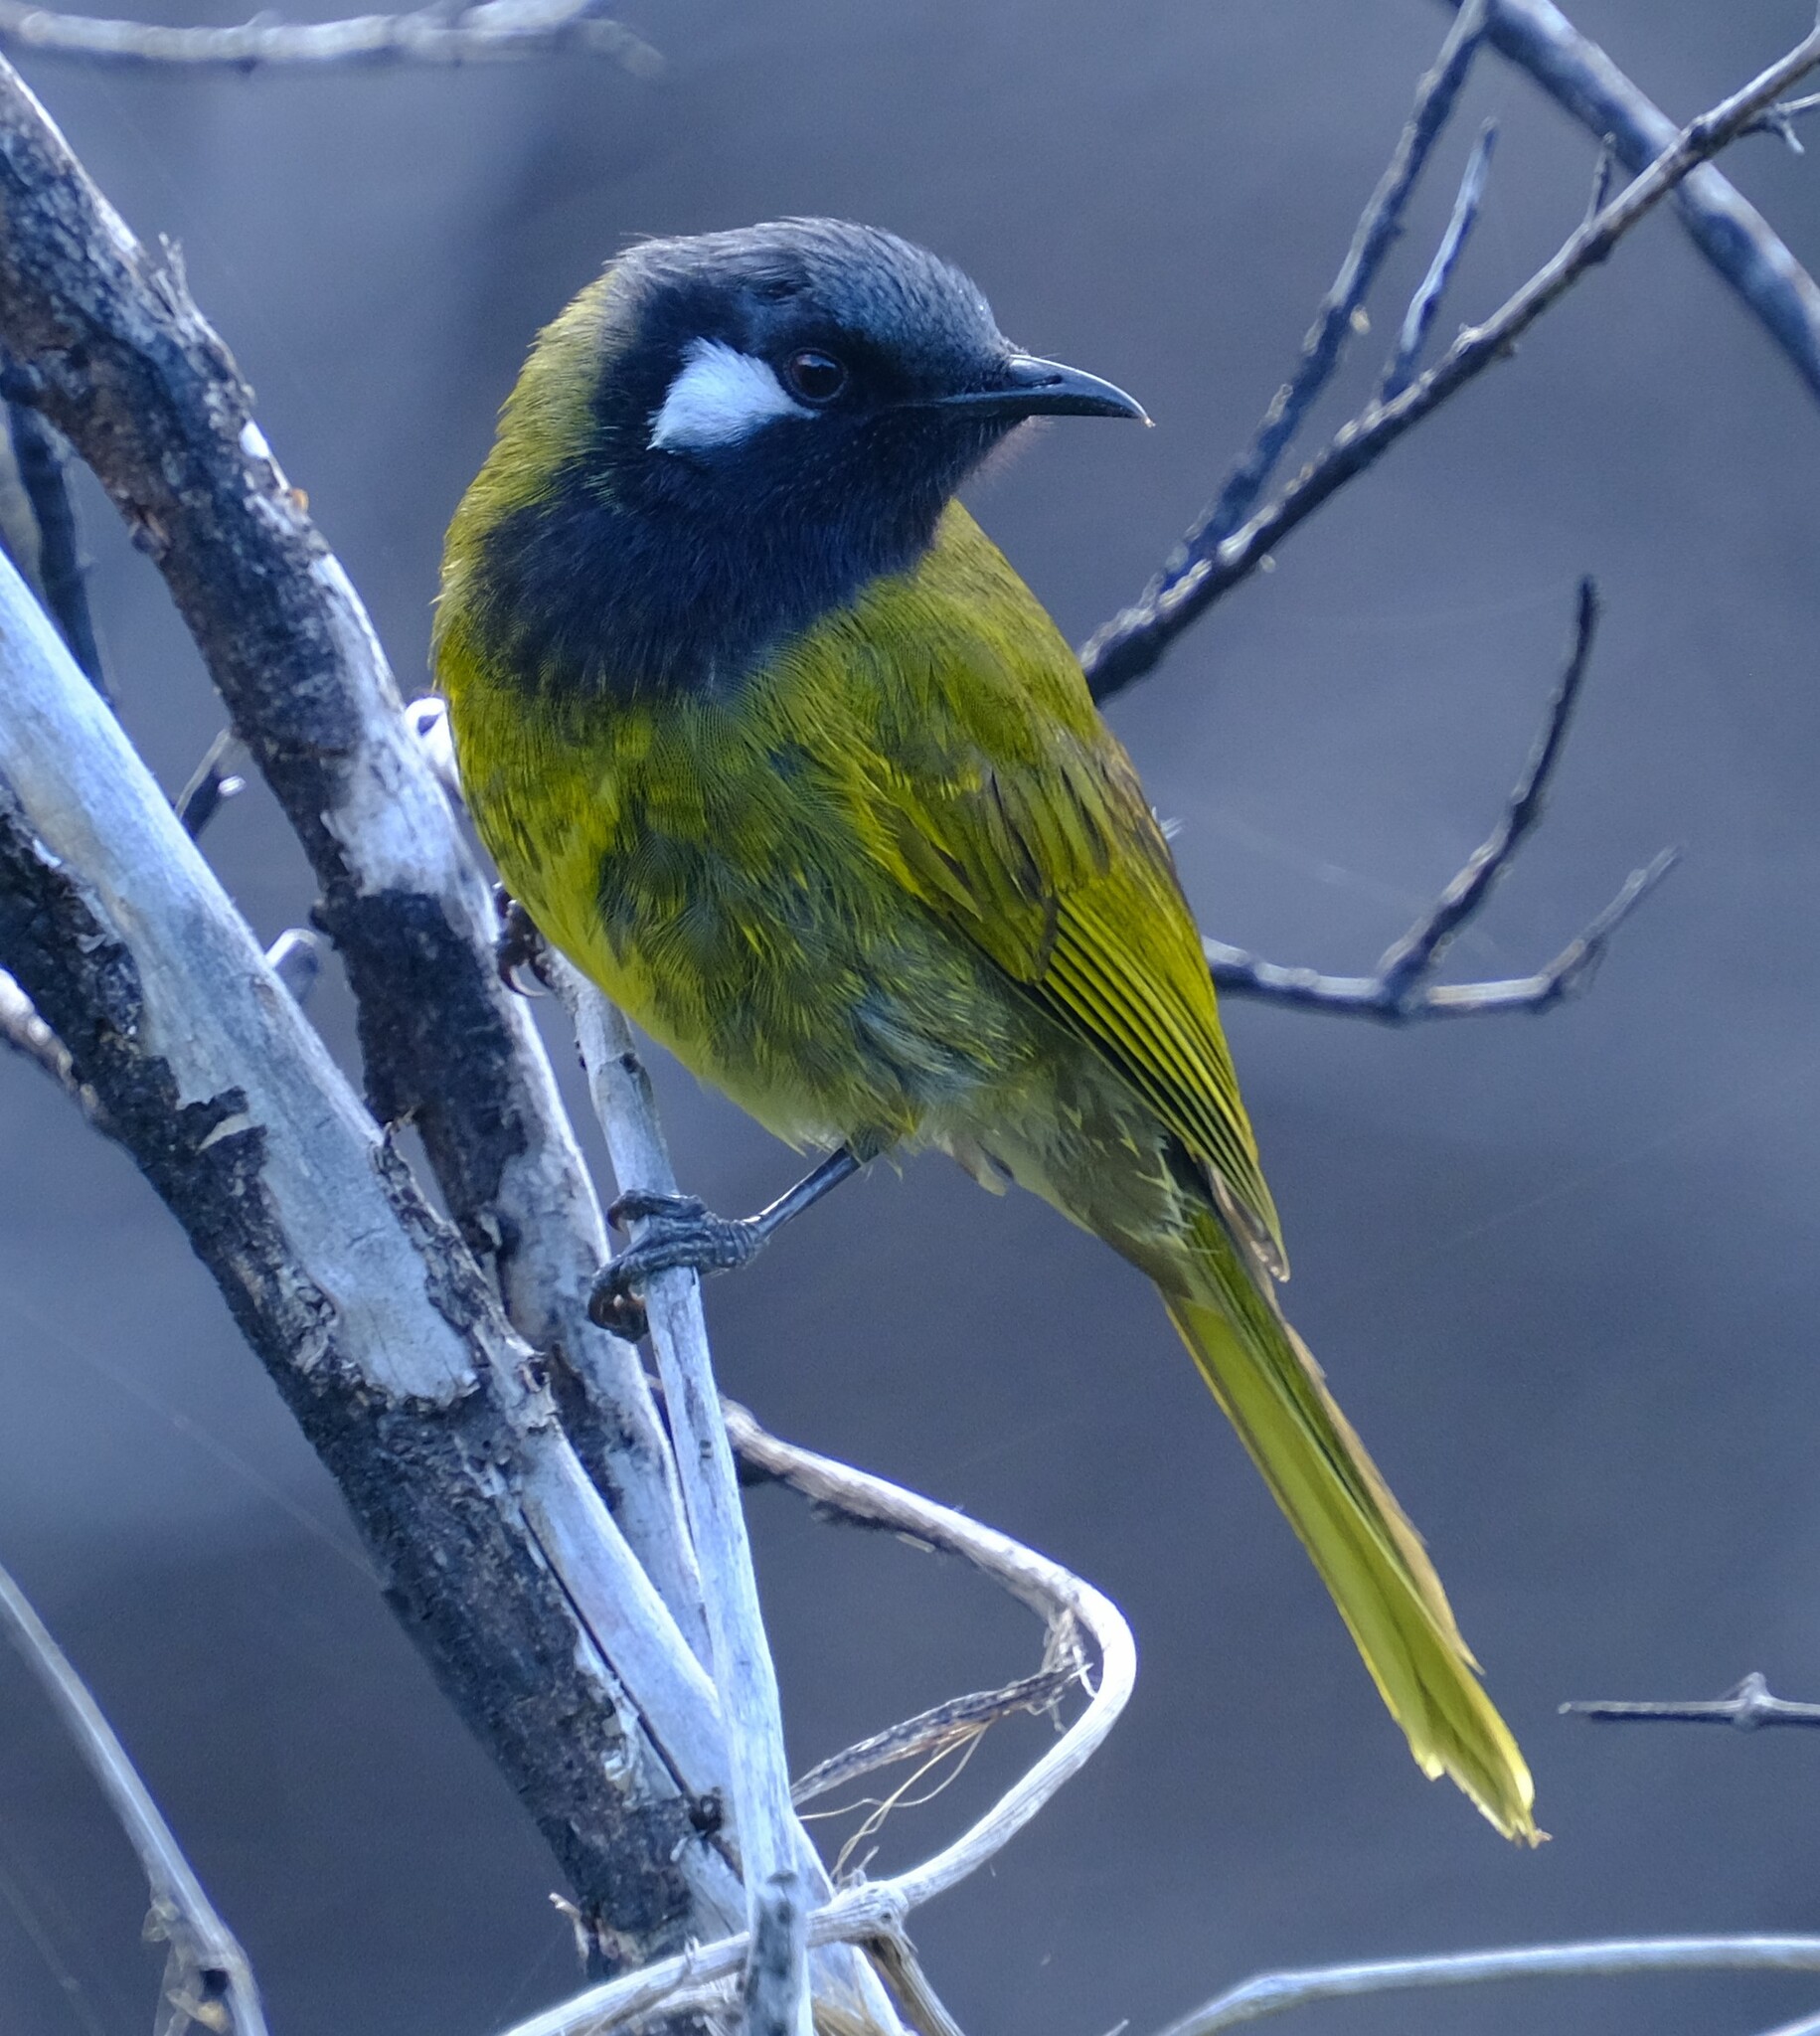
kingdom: Animalia
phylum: Chordata
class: Aves
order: Passeriformes
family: Meliphagidae
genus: Nesoptilotis
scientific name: Nesoptilotis leucotis
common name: White-eared honeyeater
